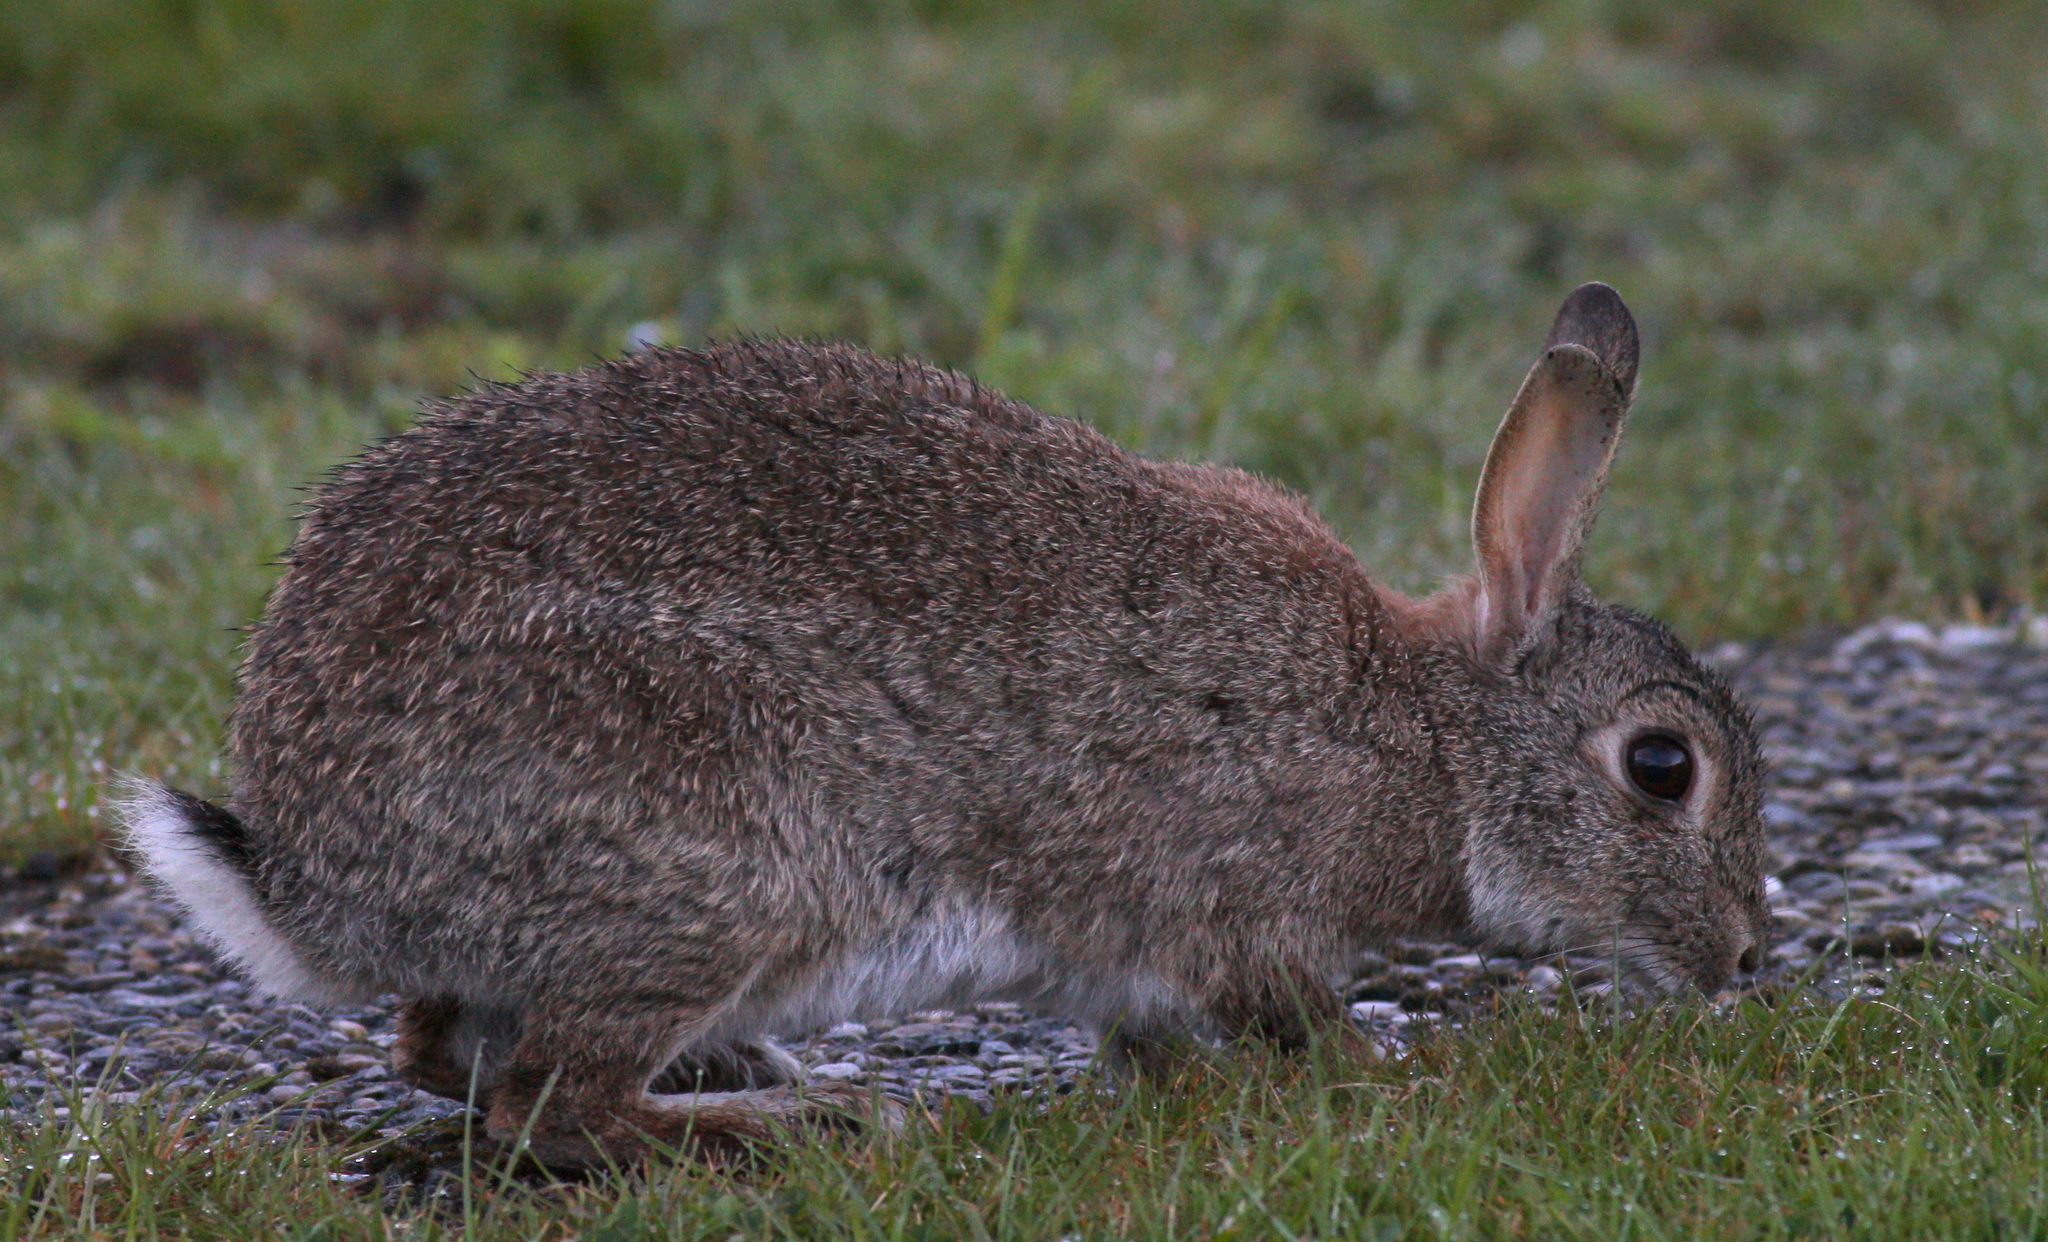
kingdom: Animalia
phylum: Chordata
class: Mammalia
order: Lagomorpha
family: Leporidae
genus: Oryctolagus
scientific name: Oryctolagus cuniculus
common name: European rabbit
